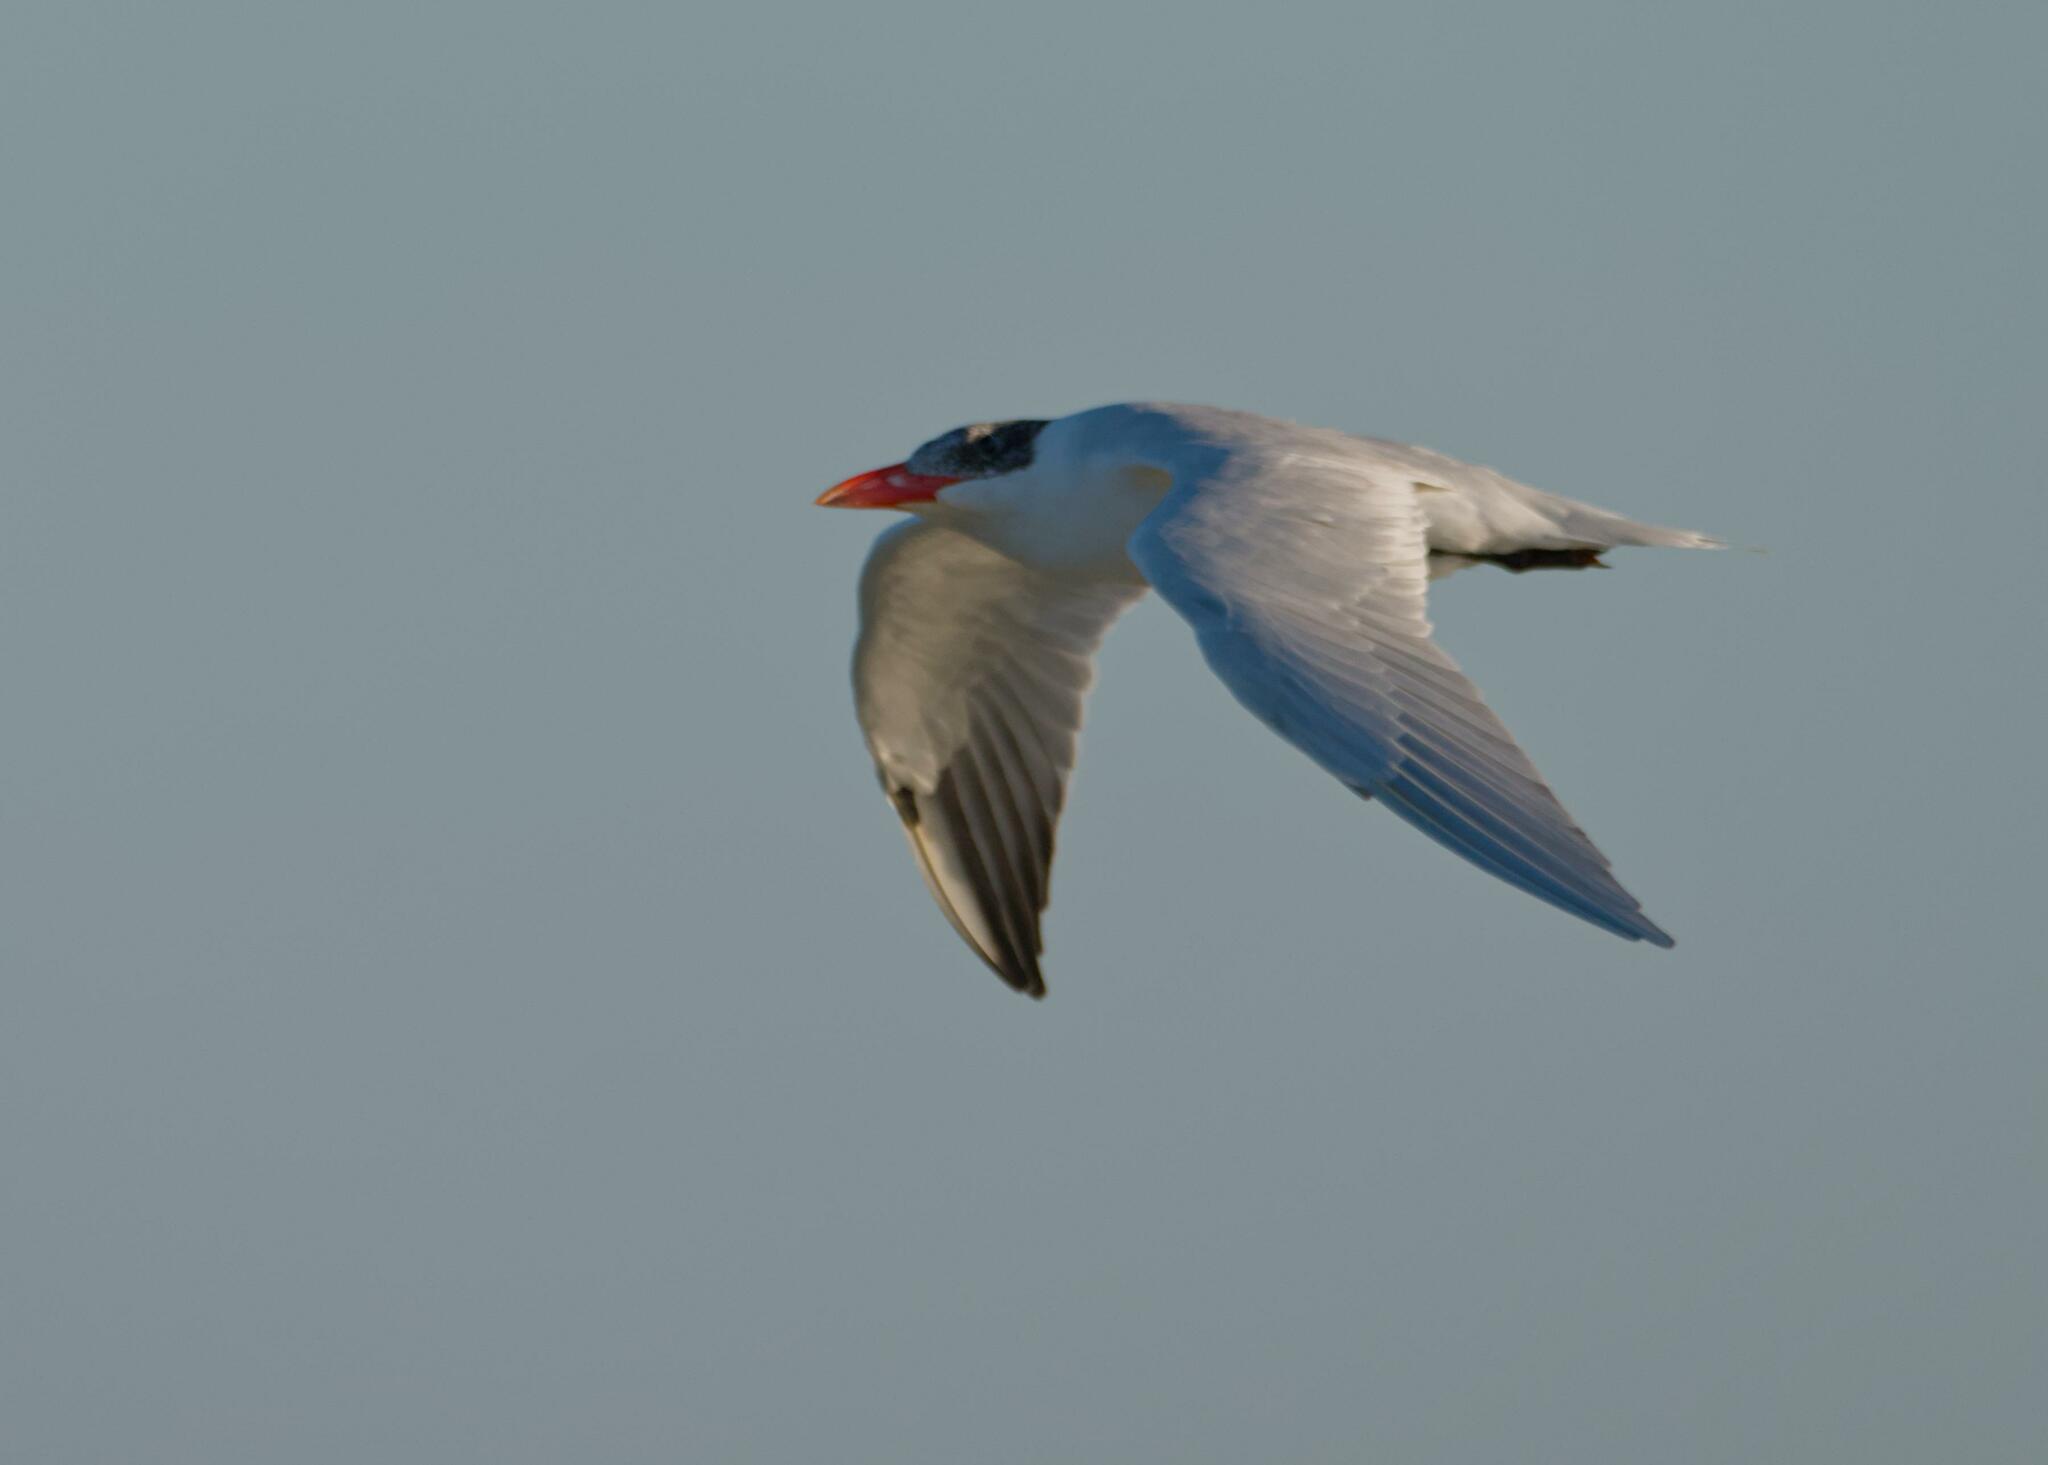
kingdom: Animalia
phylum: Chordata
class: Aves
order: Charadriiformes
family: Laridae
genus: Hydroprogne
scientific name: Hydroprogne caspia
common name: Caspian tern
